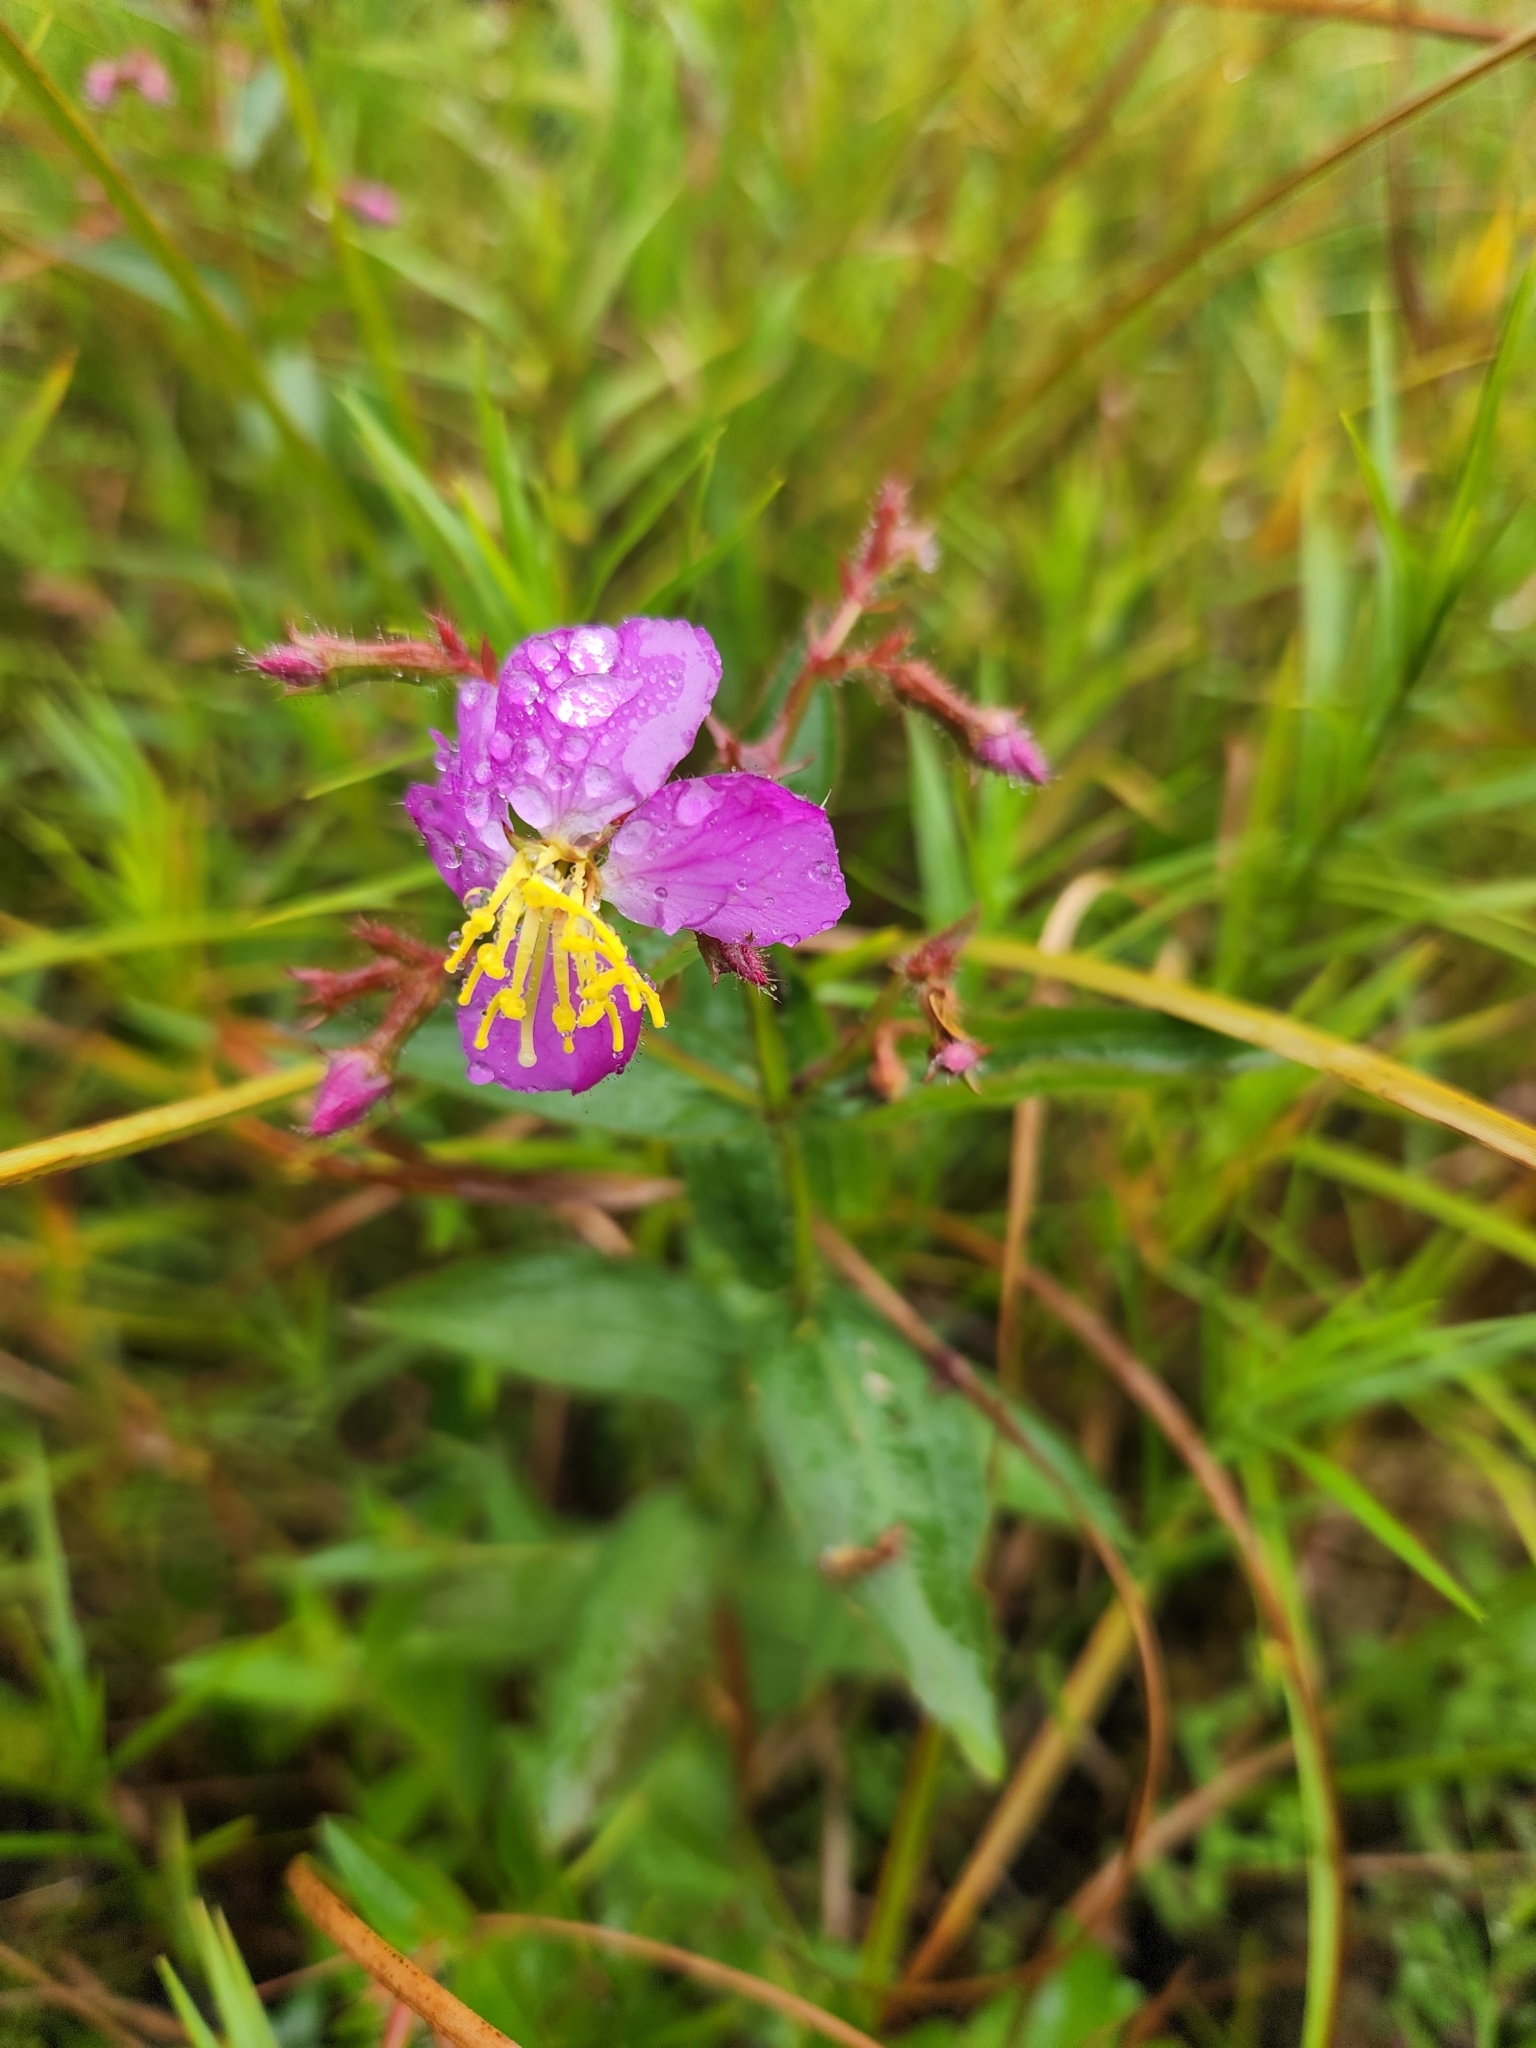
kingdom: Plantae
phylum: Tracheophyta
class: Magnoliopsida
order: Myrtales
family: Melastomataceae
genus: Rhexia
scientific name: Rhexia virginica
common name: Common meadow beauty
